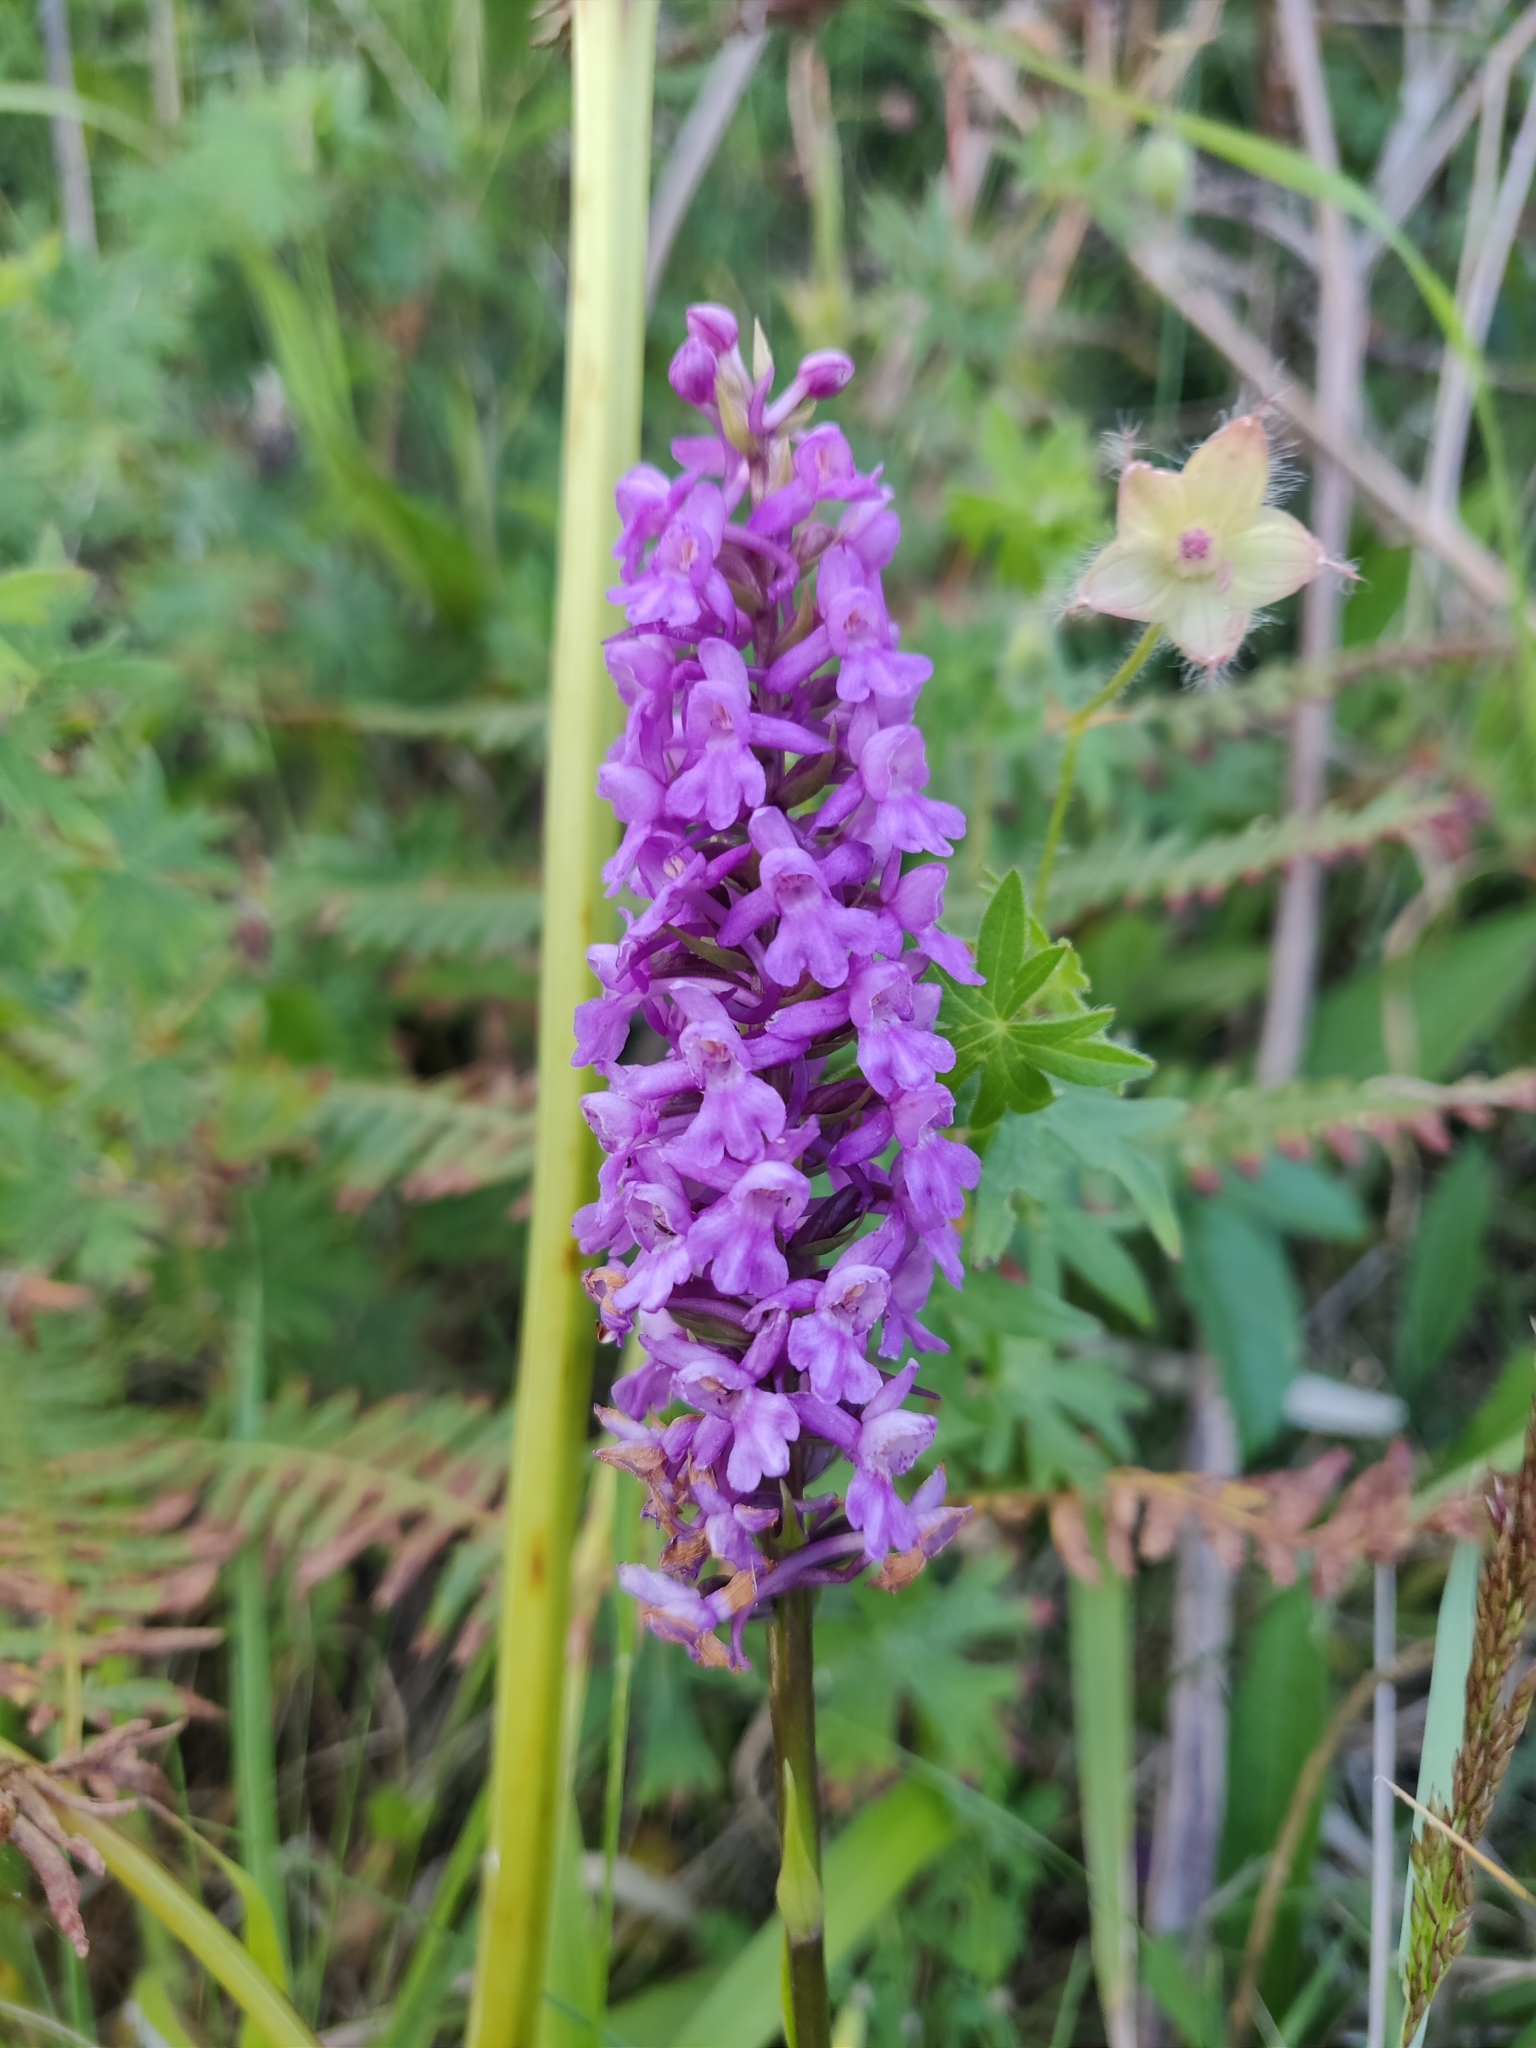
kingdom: Plantae
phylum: Tracheophyta
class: Liliopsida
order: Asparagales
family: Orchidaceae
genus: Gymnadenia
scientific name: Gymnadenia conopsea
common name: Fragrant orchid
